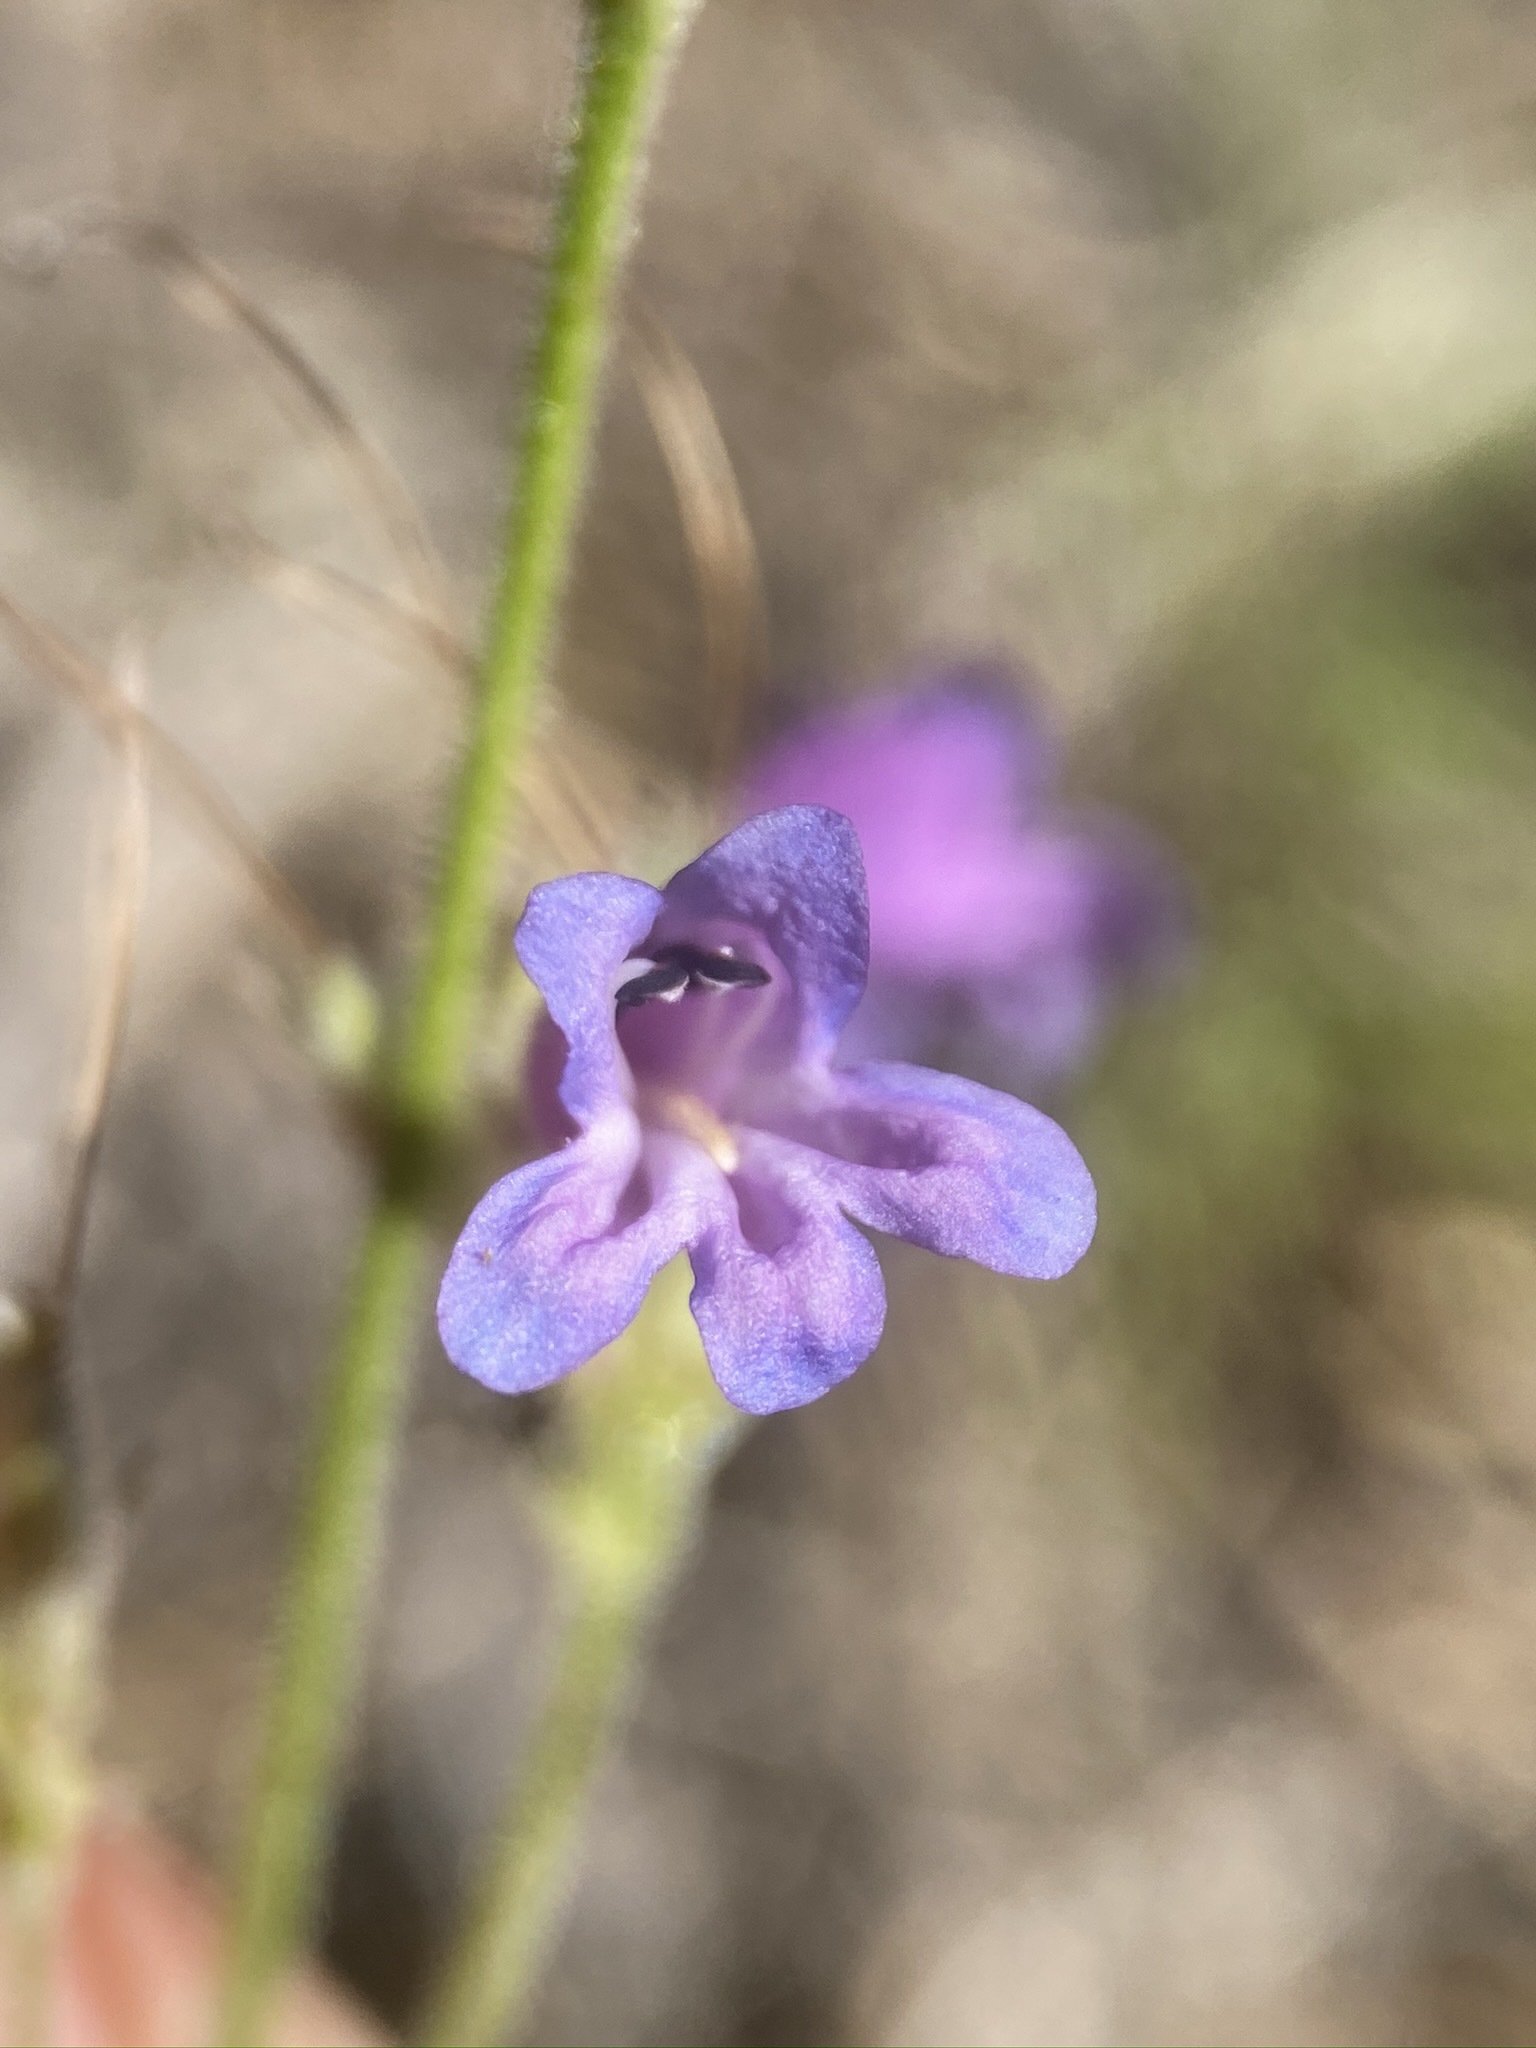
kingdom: Plantae
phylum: Tracheophyta
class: Magnoliopsida
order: Lamiales
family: Plantaginaceae
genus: Penstemon
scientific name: Penstemon gracilentus
